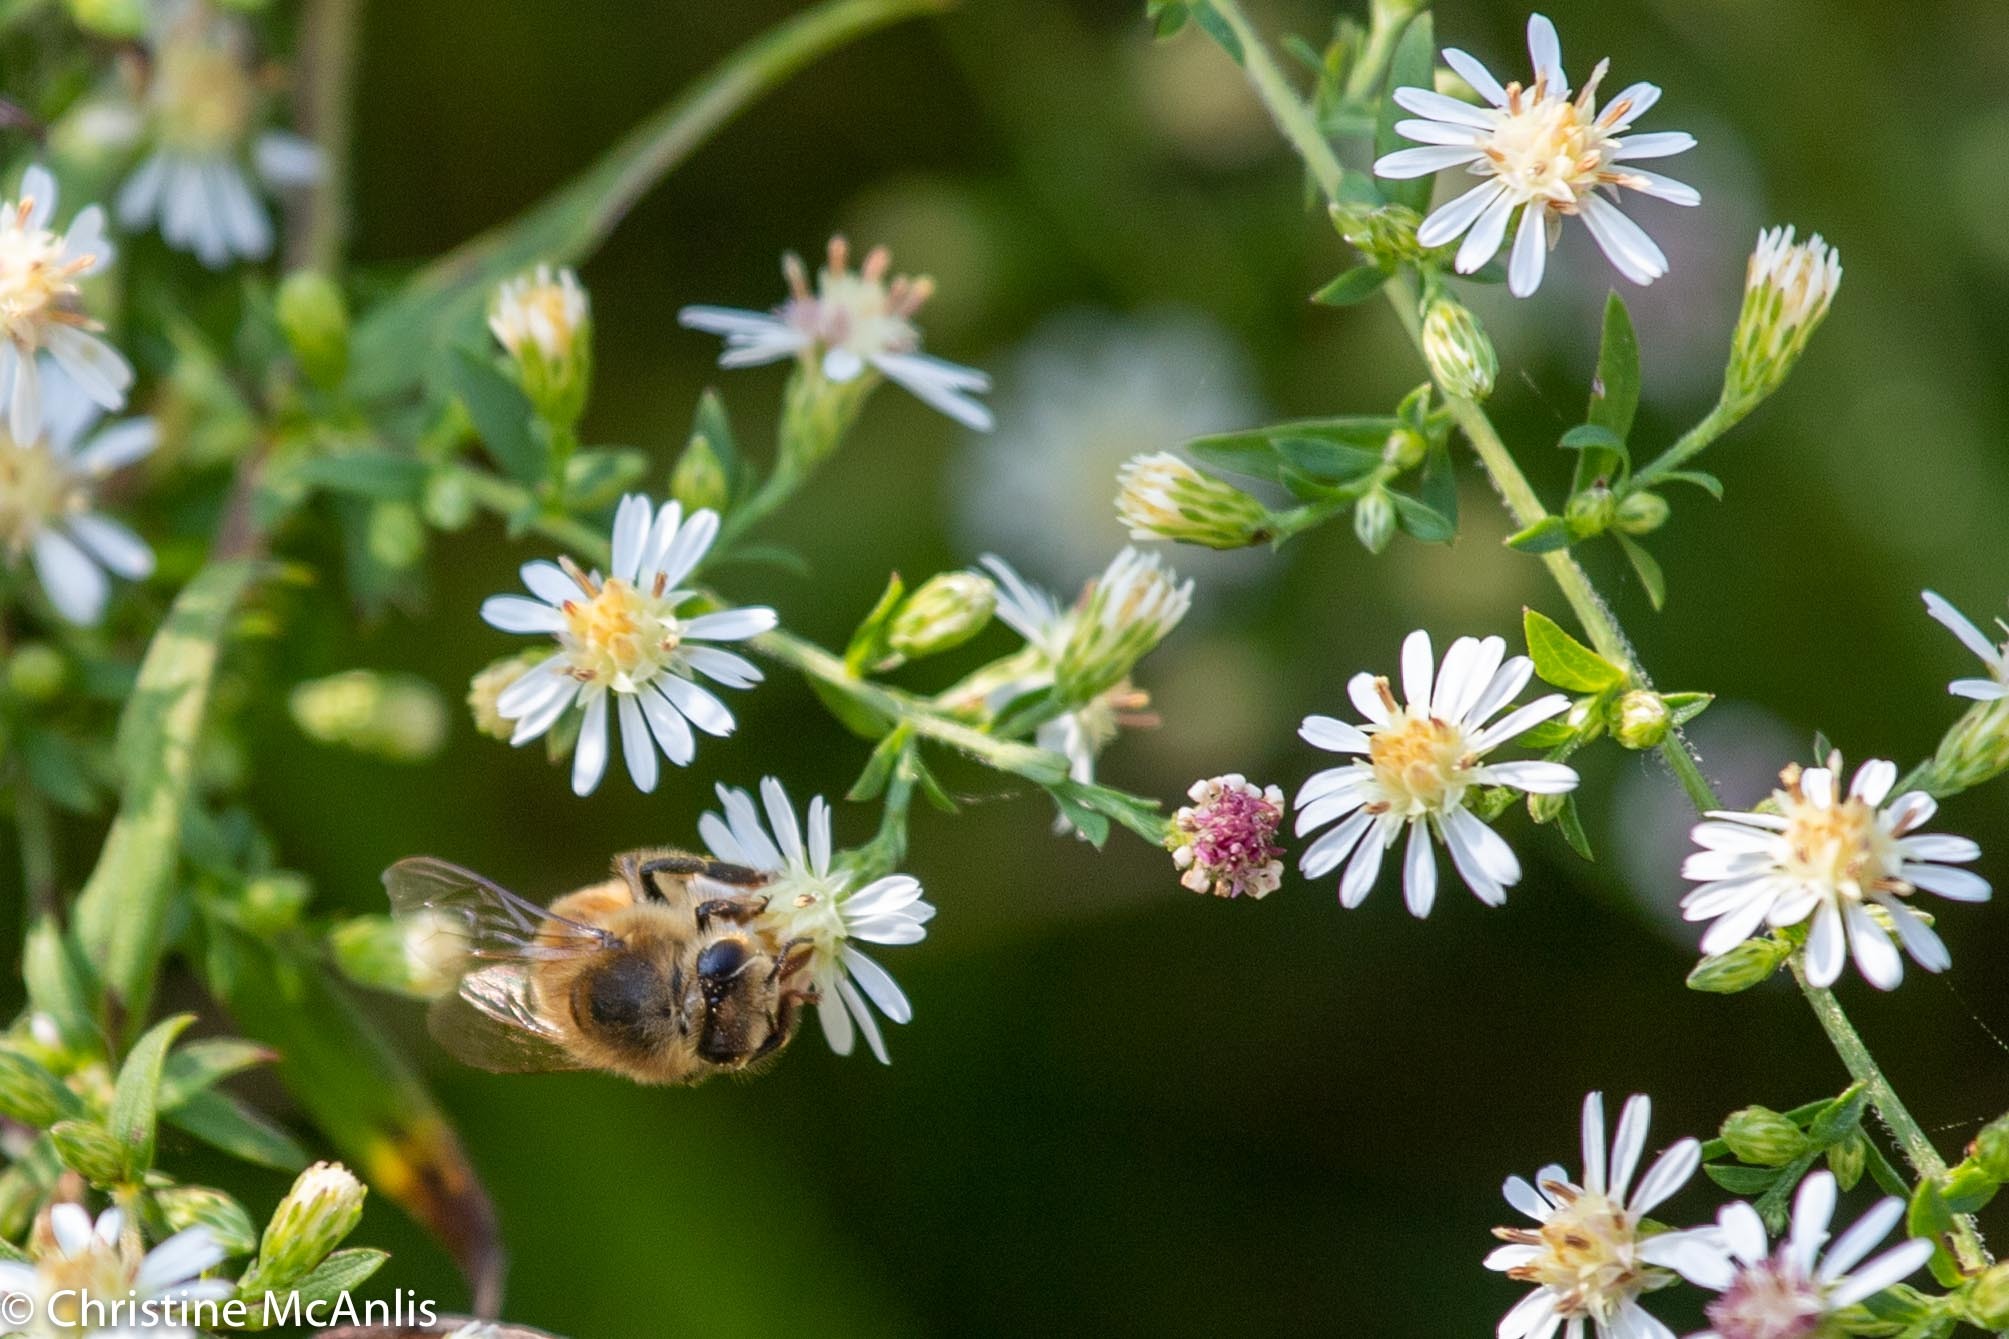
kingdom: Animalia
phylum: Arthropoda
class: Insecta
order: Hymenoptera
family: Apidae
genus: Apis
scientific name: Apis mellifera
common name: Honey bee
